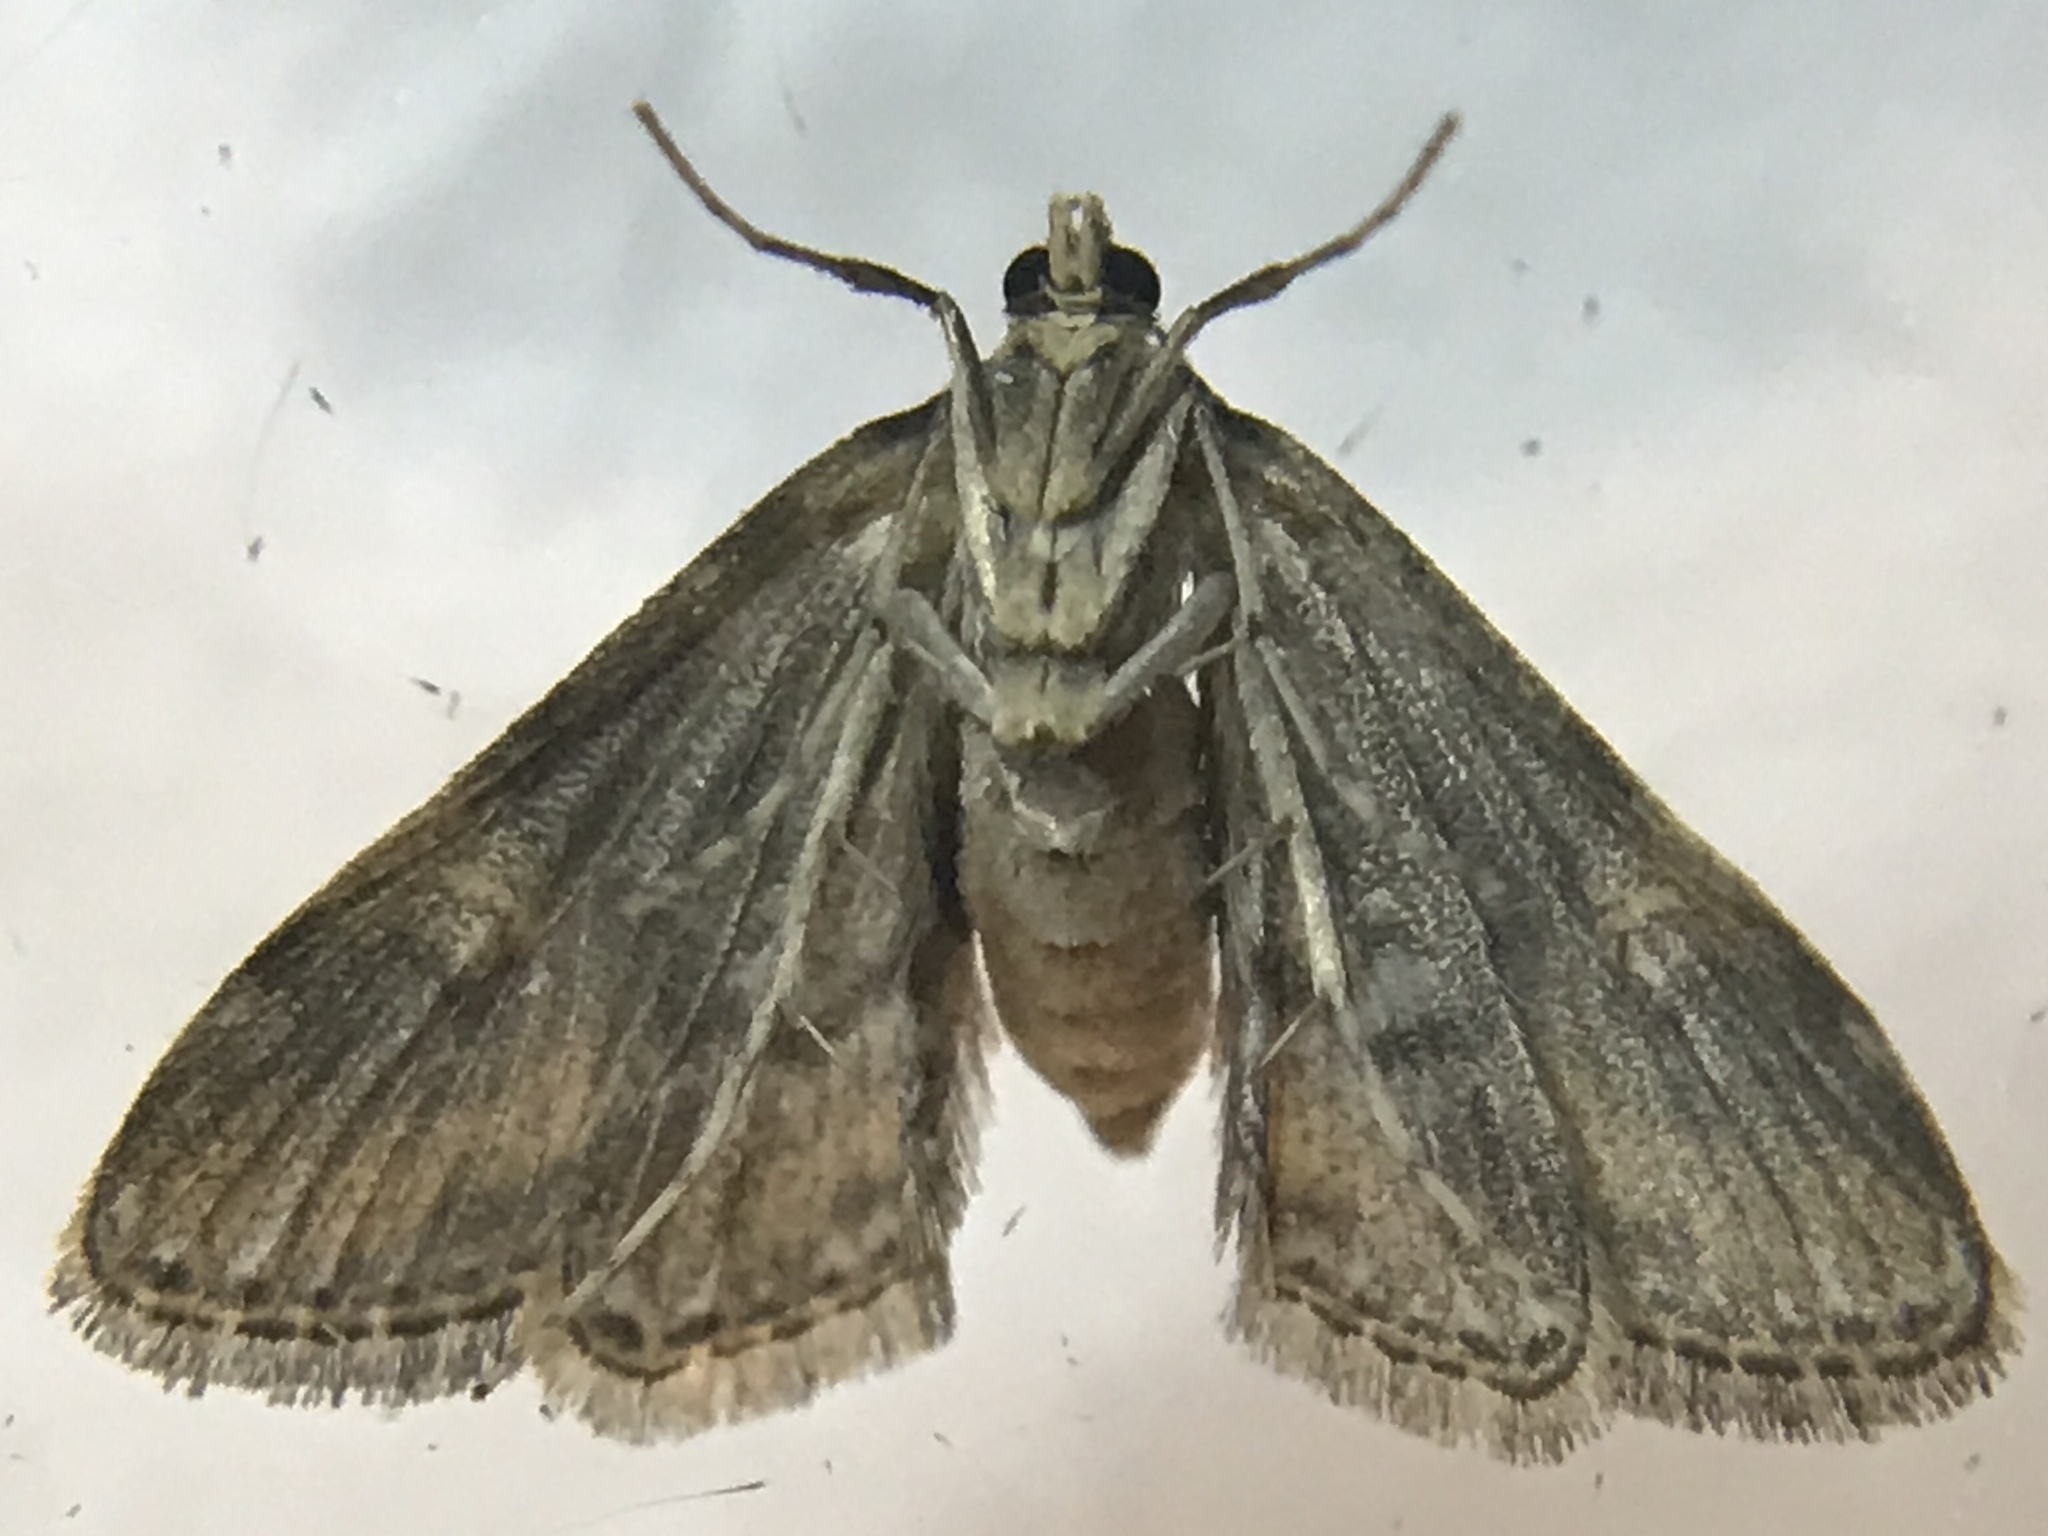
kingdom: Animalia
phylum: Arthropoda
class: Insecta
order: Lepidoptera
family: Crambidae
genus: Elophila
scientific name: Elophila obliteralis
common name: Waterlily leafcutter moth
